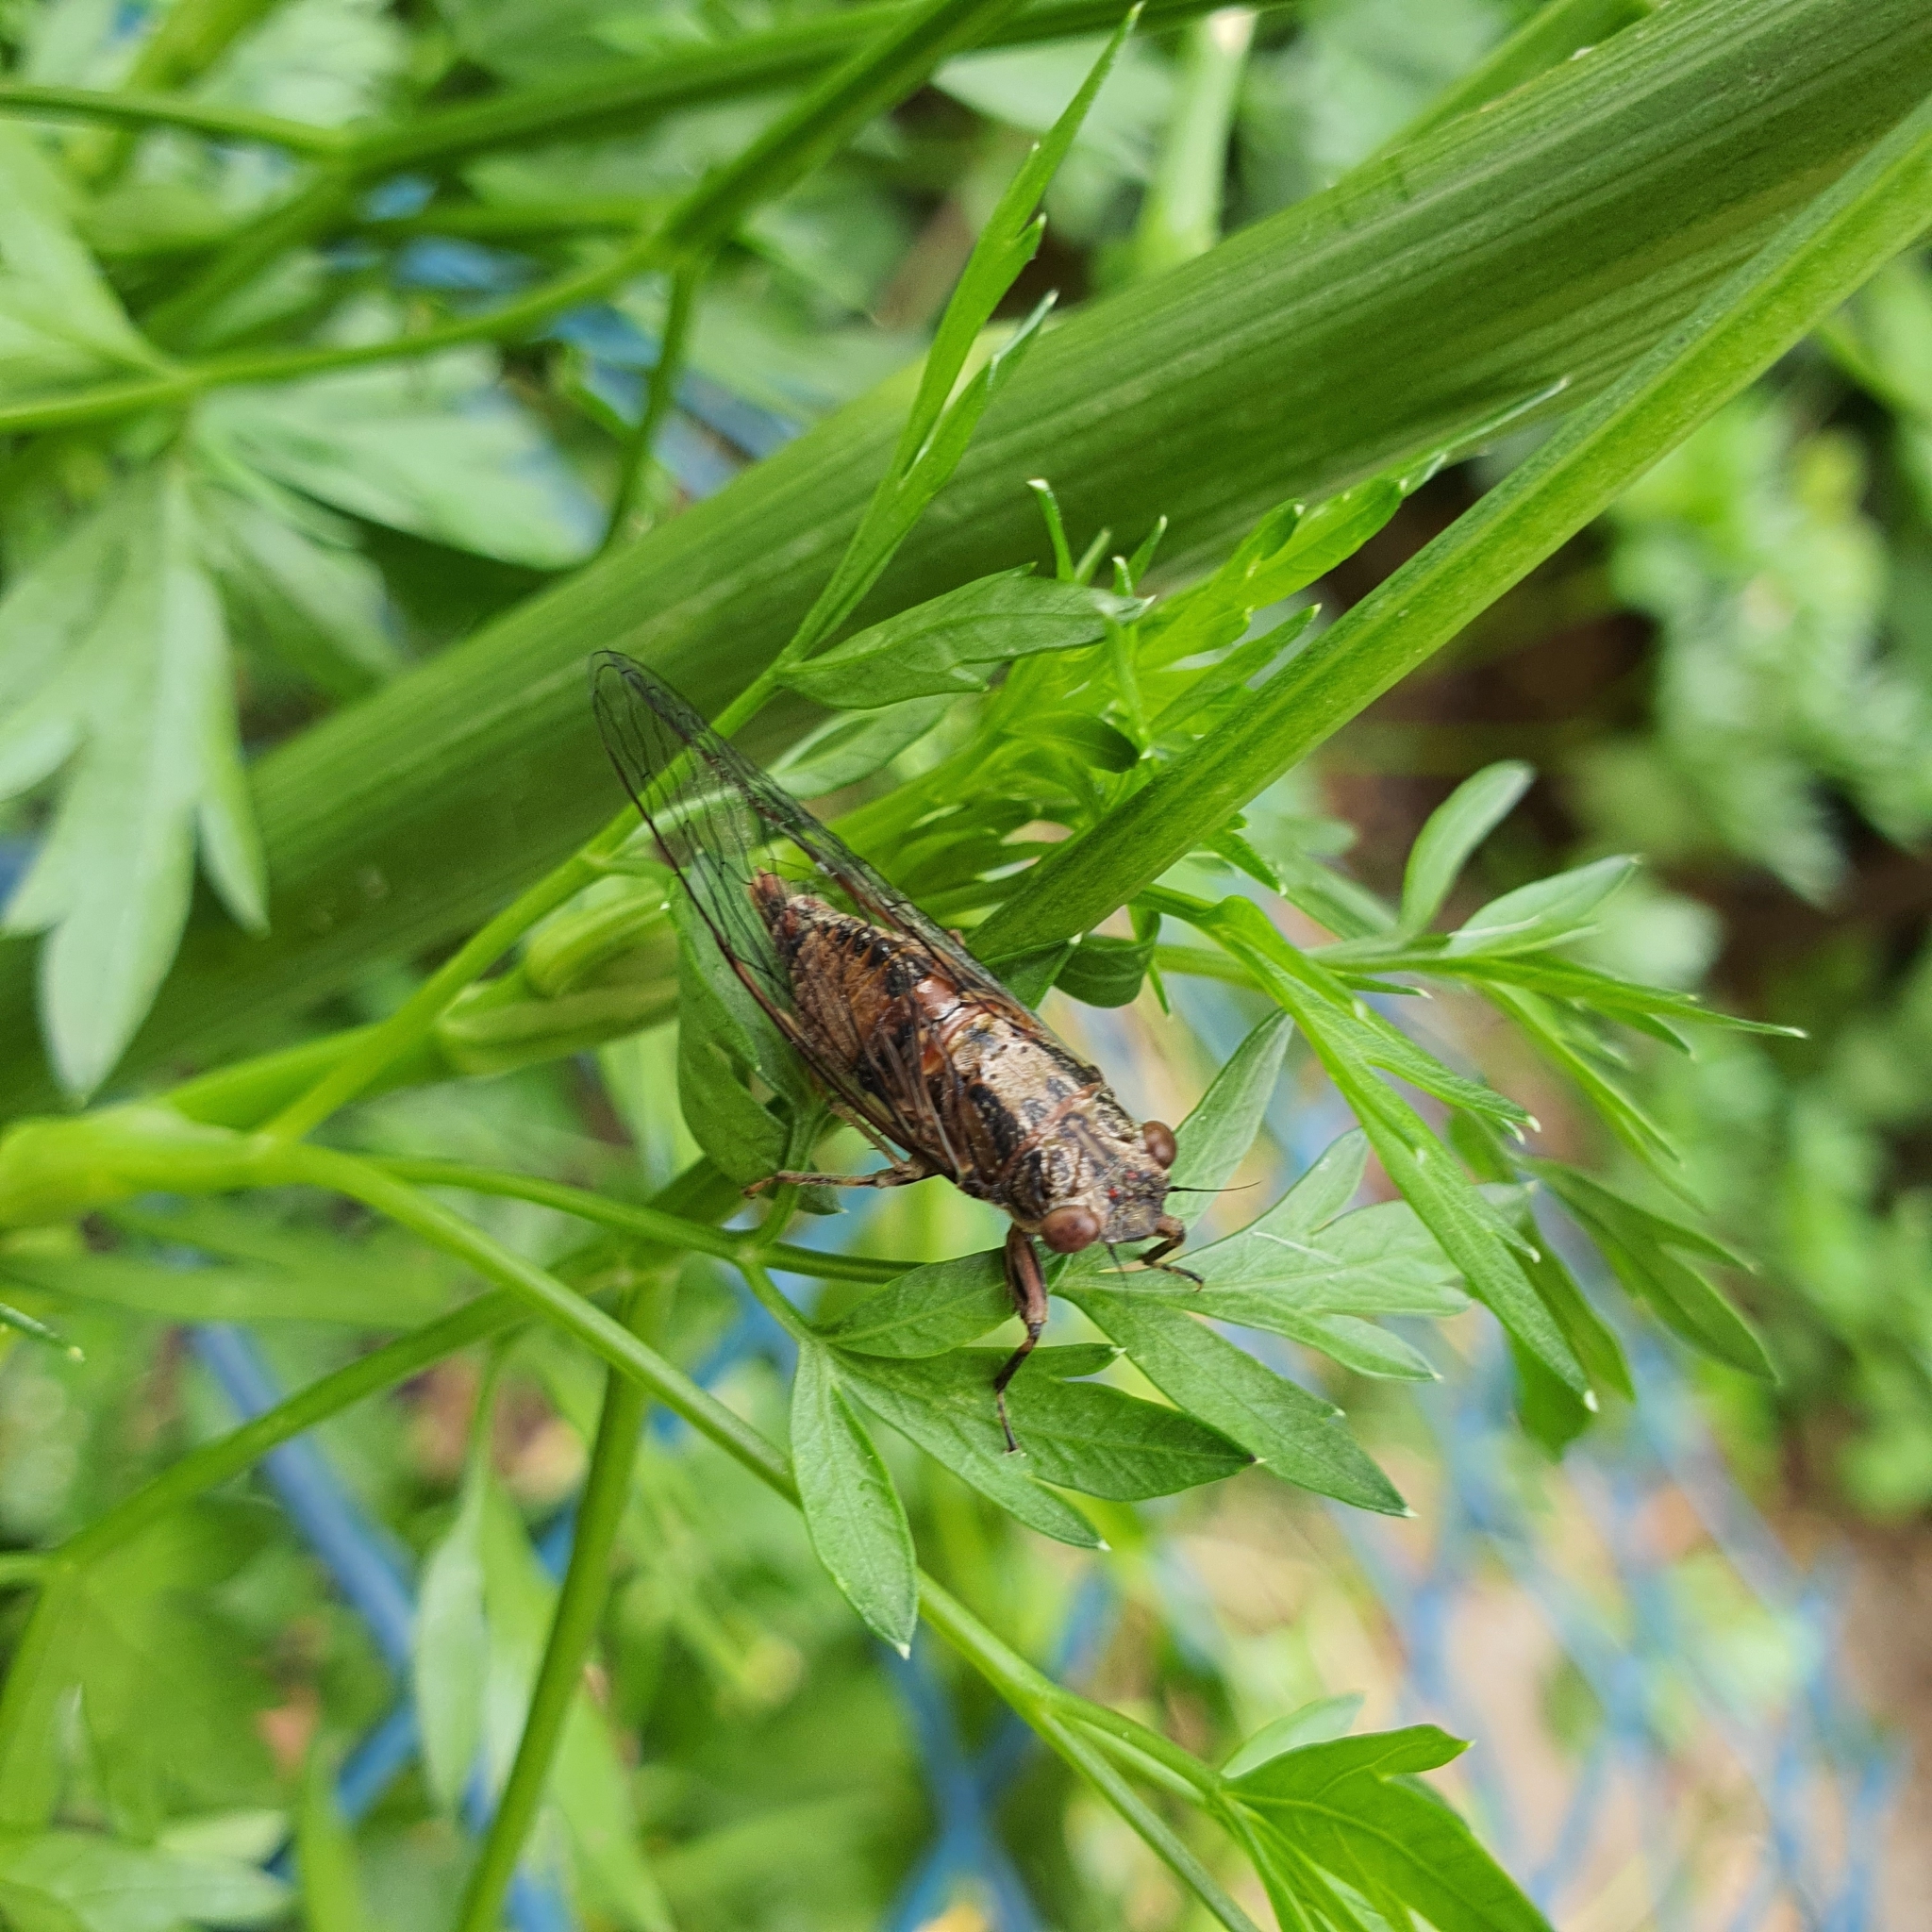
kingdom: Animalia
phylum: Arthropoda
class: Insecta
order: Hemiptera
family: Cicadidae
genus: Yoyetta
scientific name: Yoyetta celis
